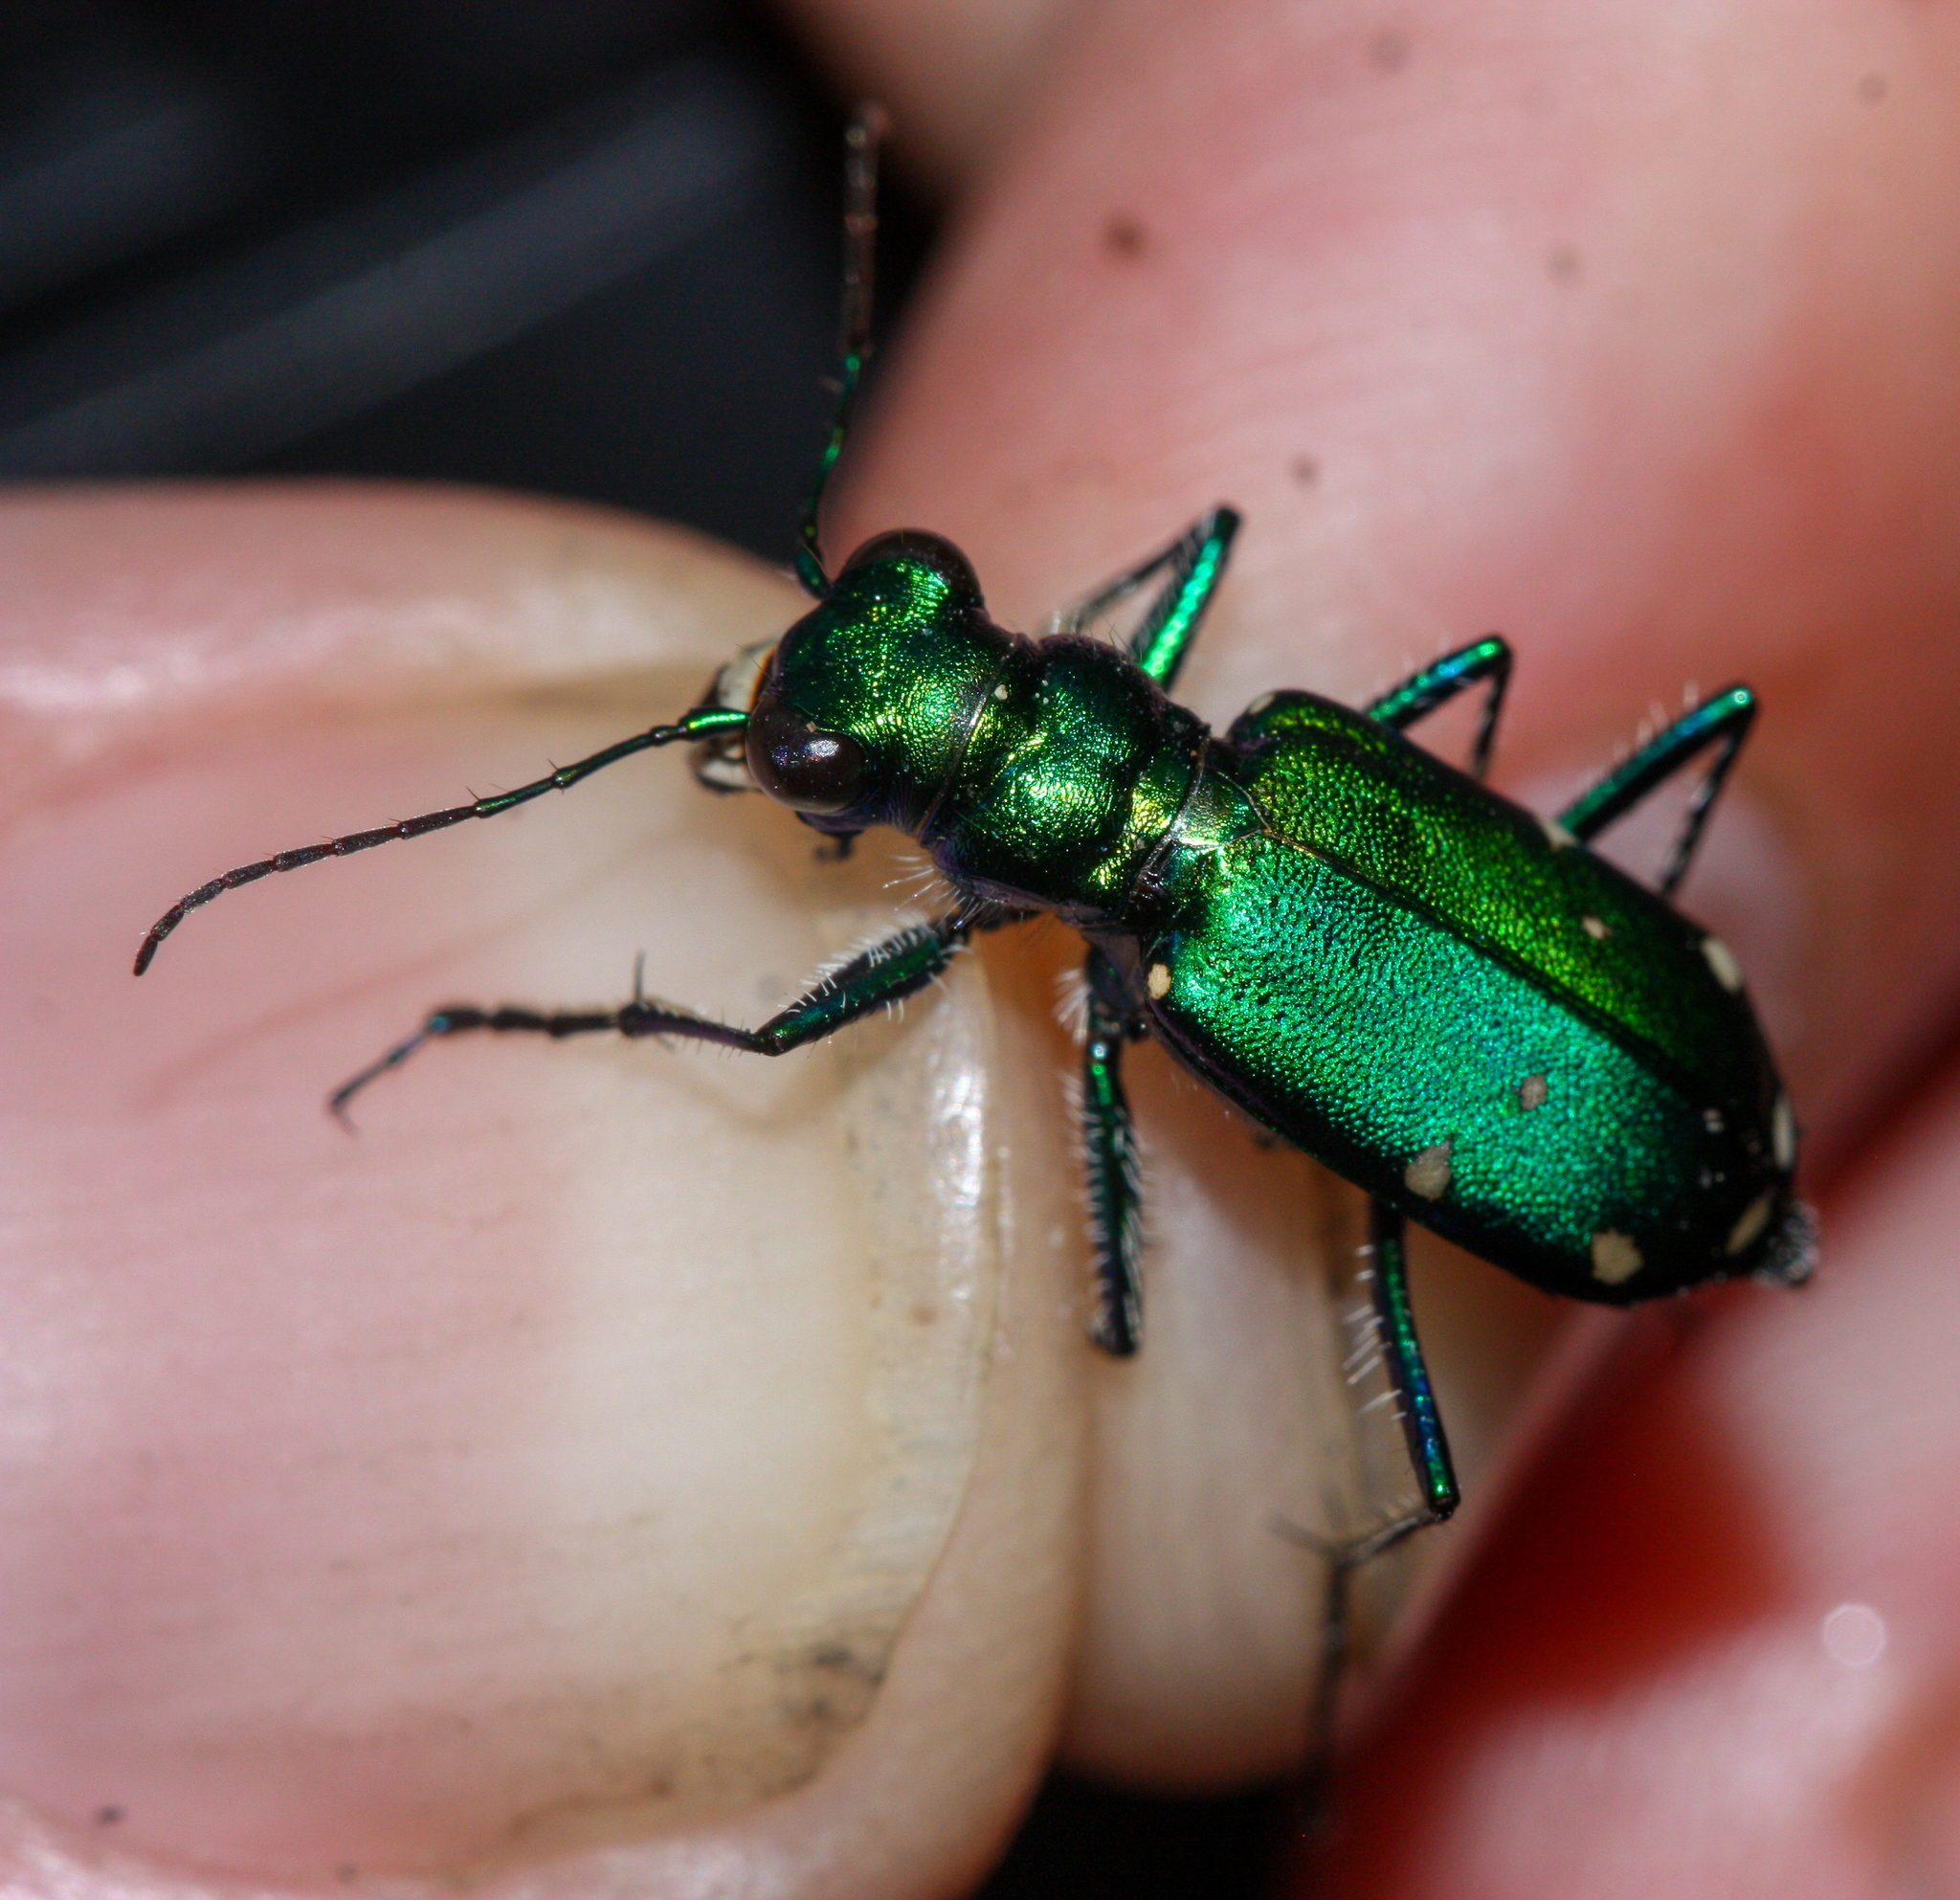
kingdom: Animalia
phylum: Arthropoda
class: Insecta
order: Coleoptera
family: Carabidae
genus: Cicindela
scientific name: Cicindela sexguttata
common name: Six-spotted tiger beetle
